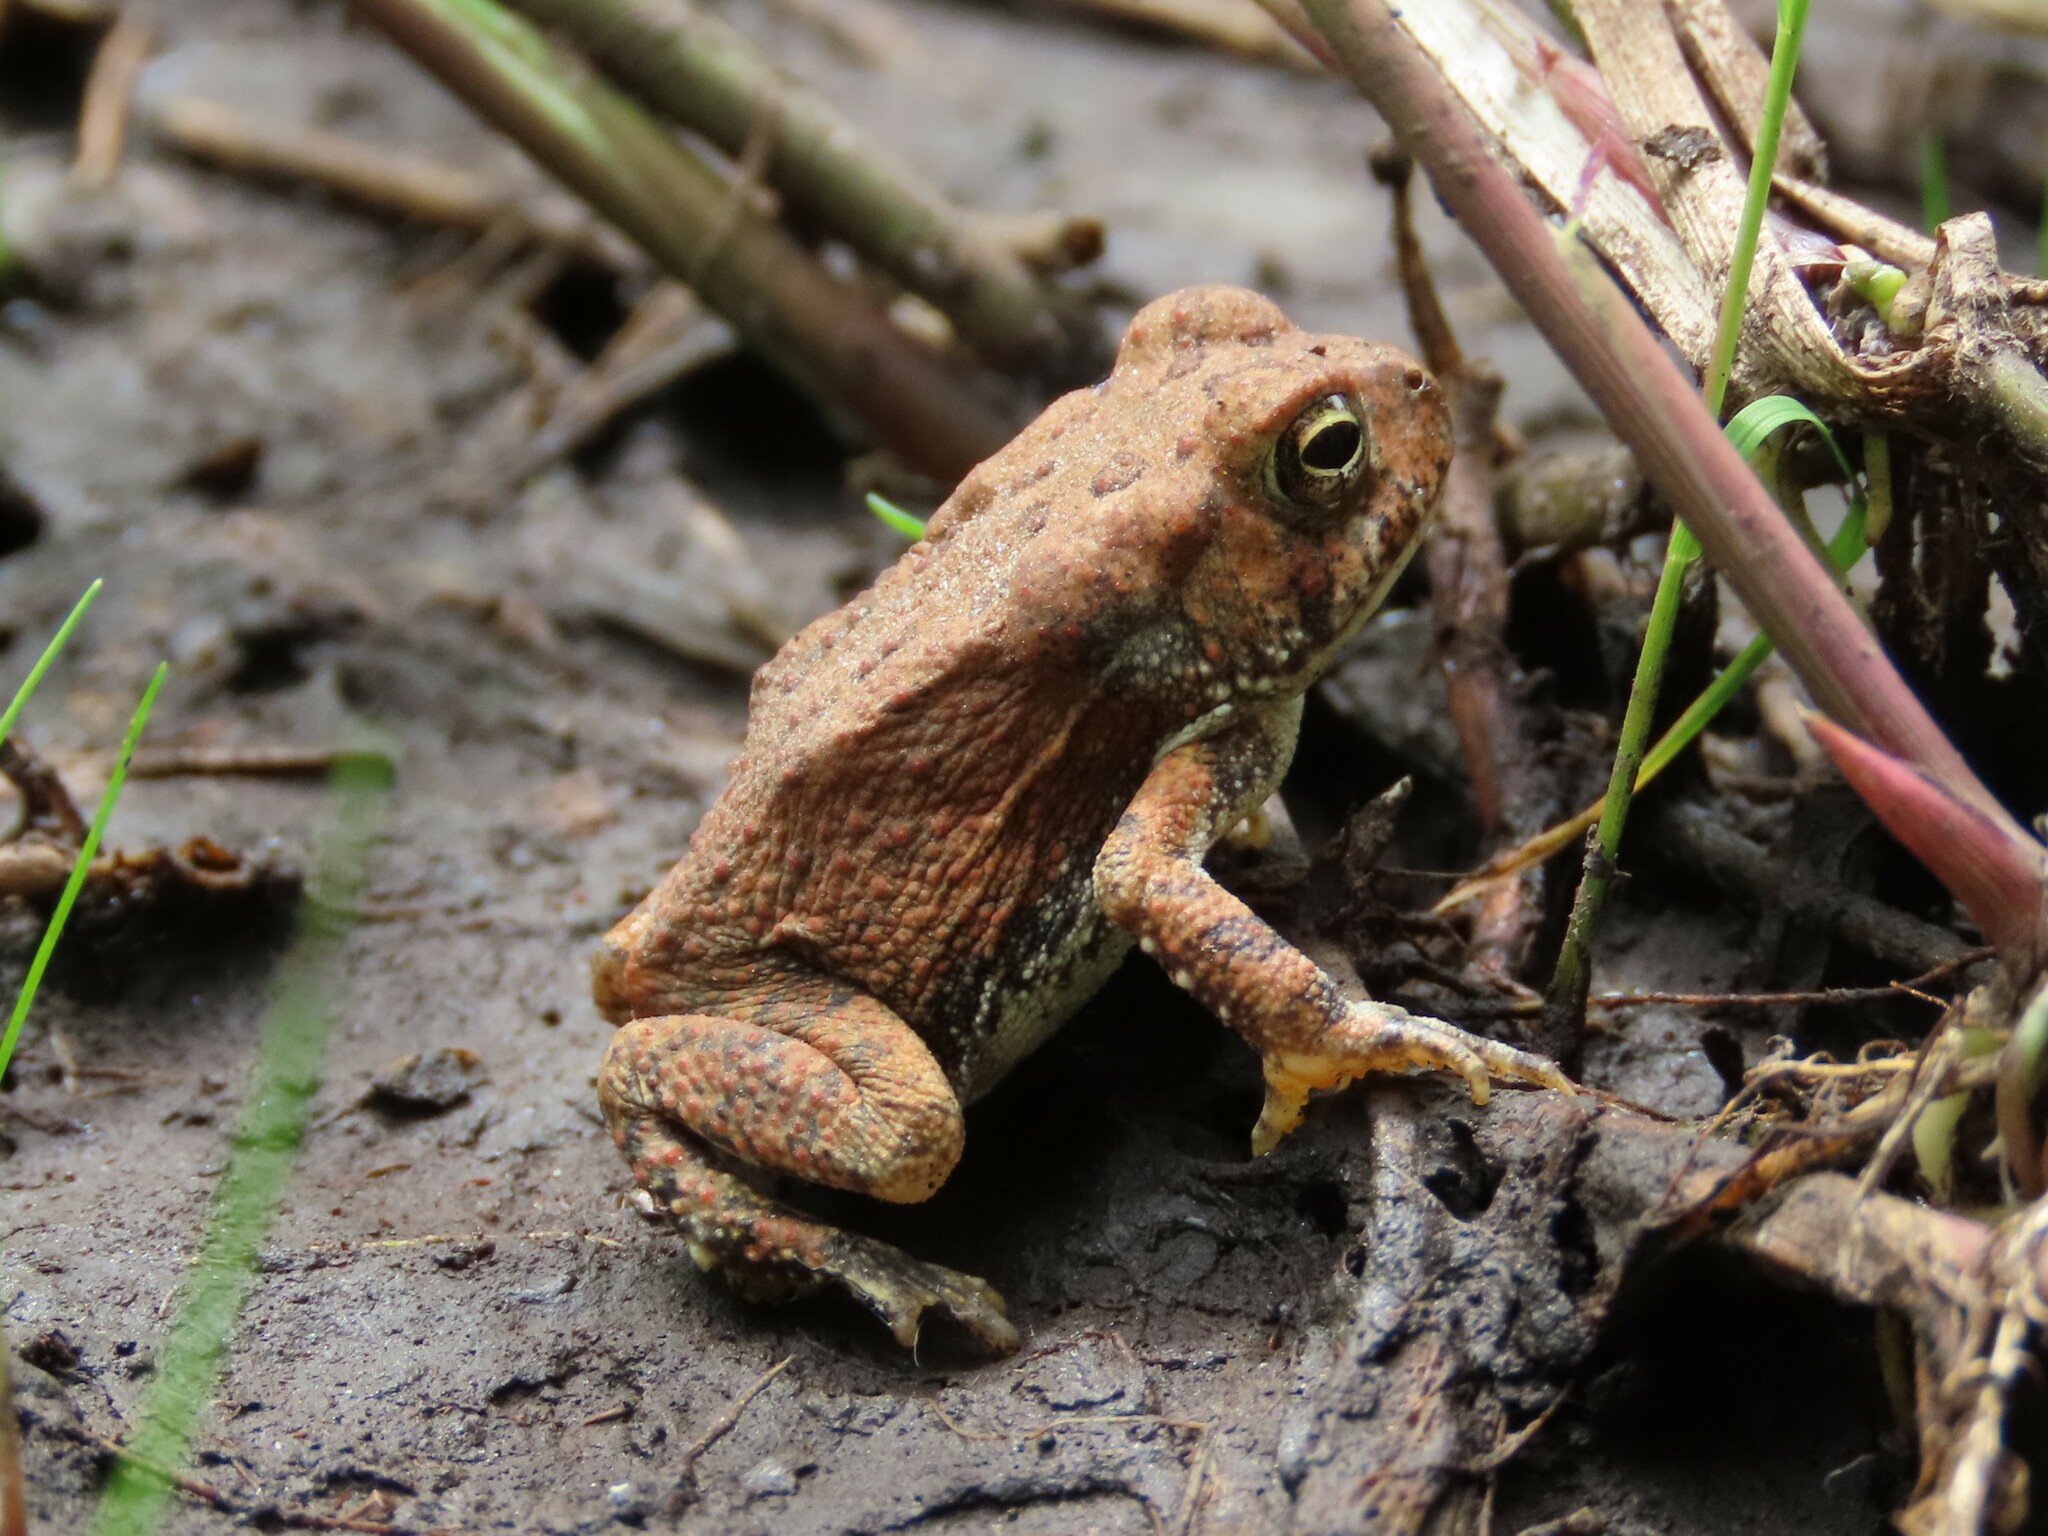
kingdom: Animalia
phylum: Chordata
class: Amphibia
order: Anura
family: Bufonidae
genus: Anaxyrus
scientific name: Anaxyrus fowleri
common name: Fowler's toad
